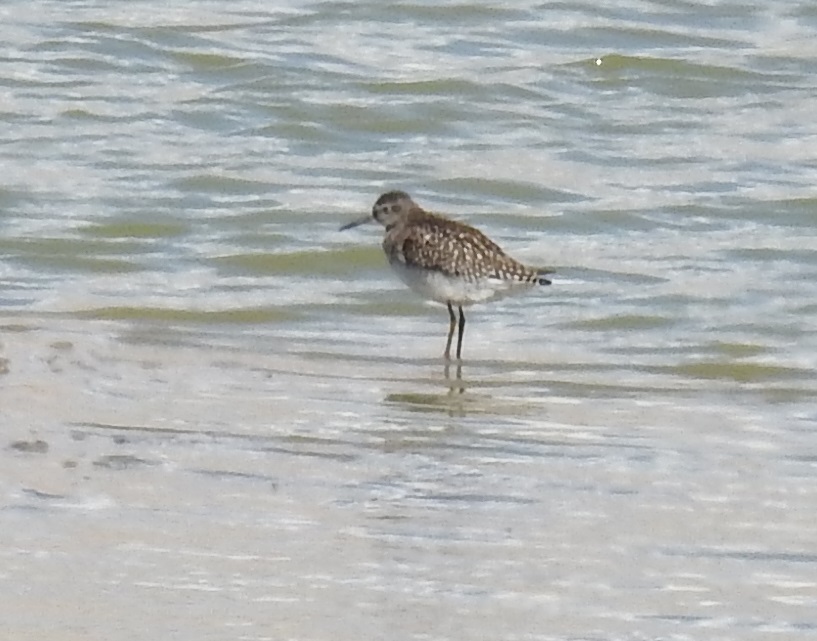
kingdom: Animalia
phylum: Chordata
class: Aves
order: Charadriiformes
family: Scolopacidae
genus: Tringa
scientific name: Tringa glareola
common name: Wood sandpiper
